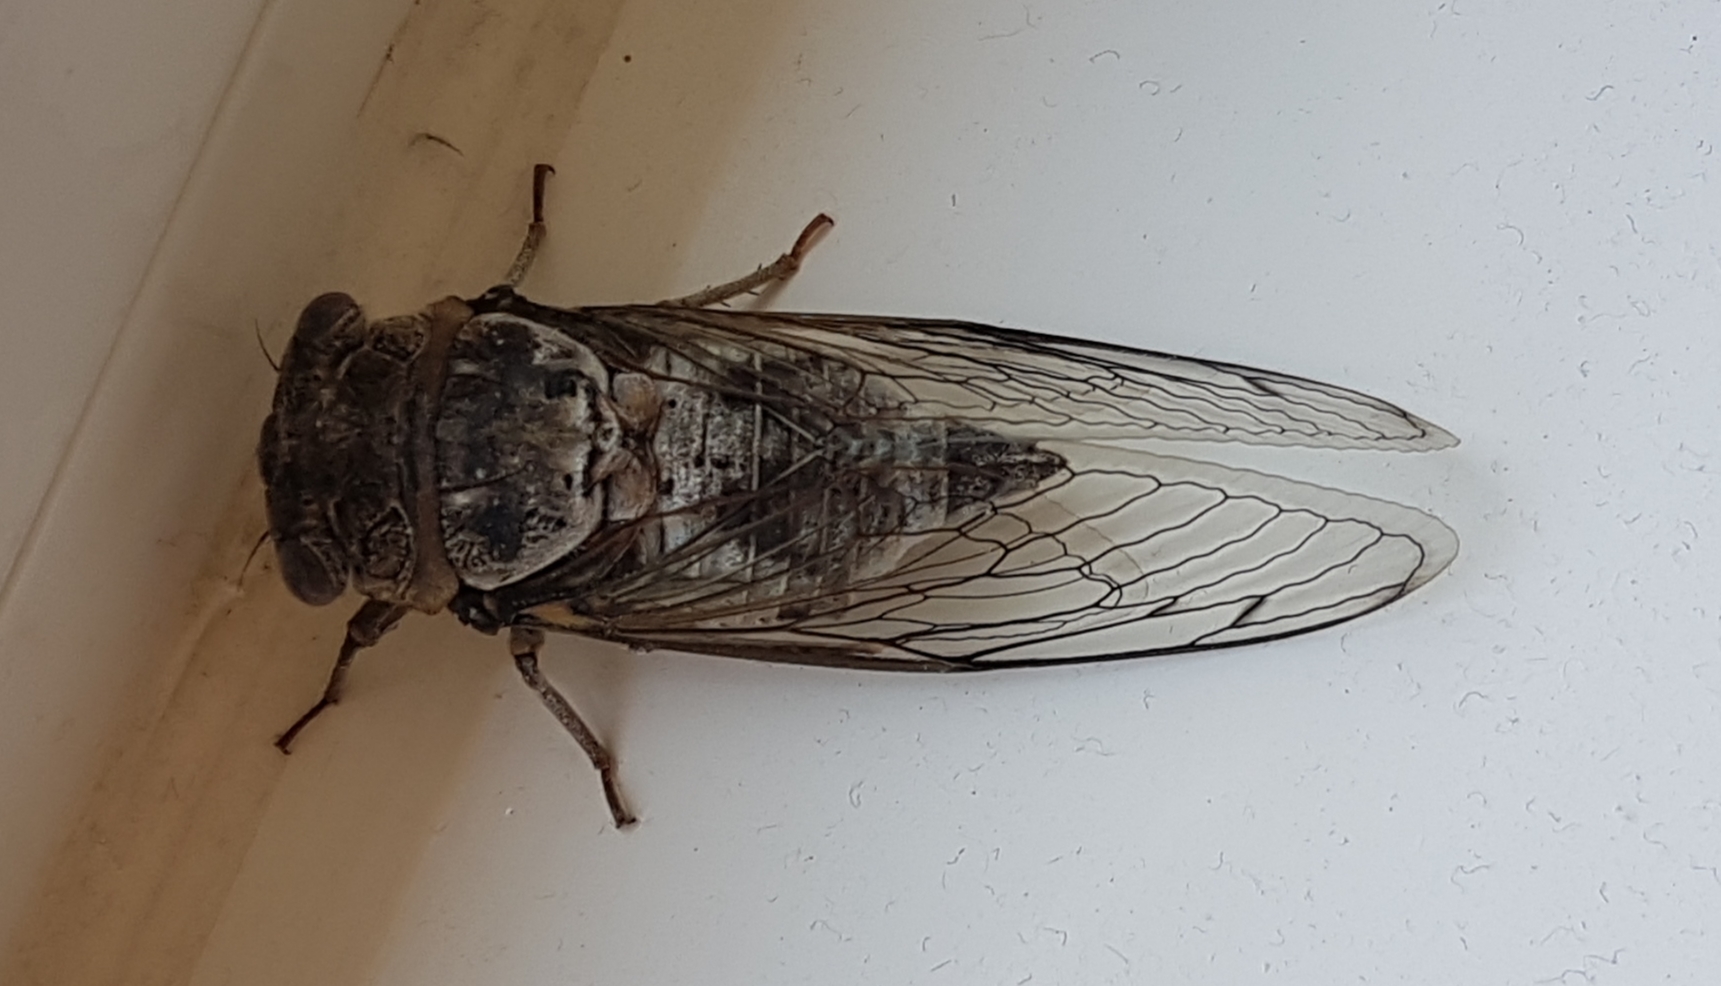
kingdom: Animalia
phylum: Arthropoda
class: Insecta
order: Hemiptera
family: Cicadidae
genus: Lyristes
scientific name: Lyristes plebejus
